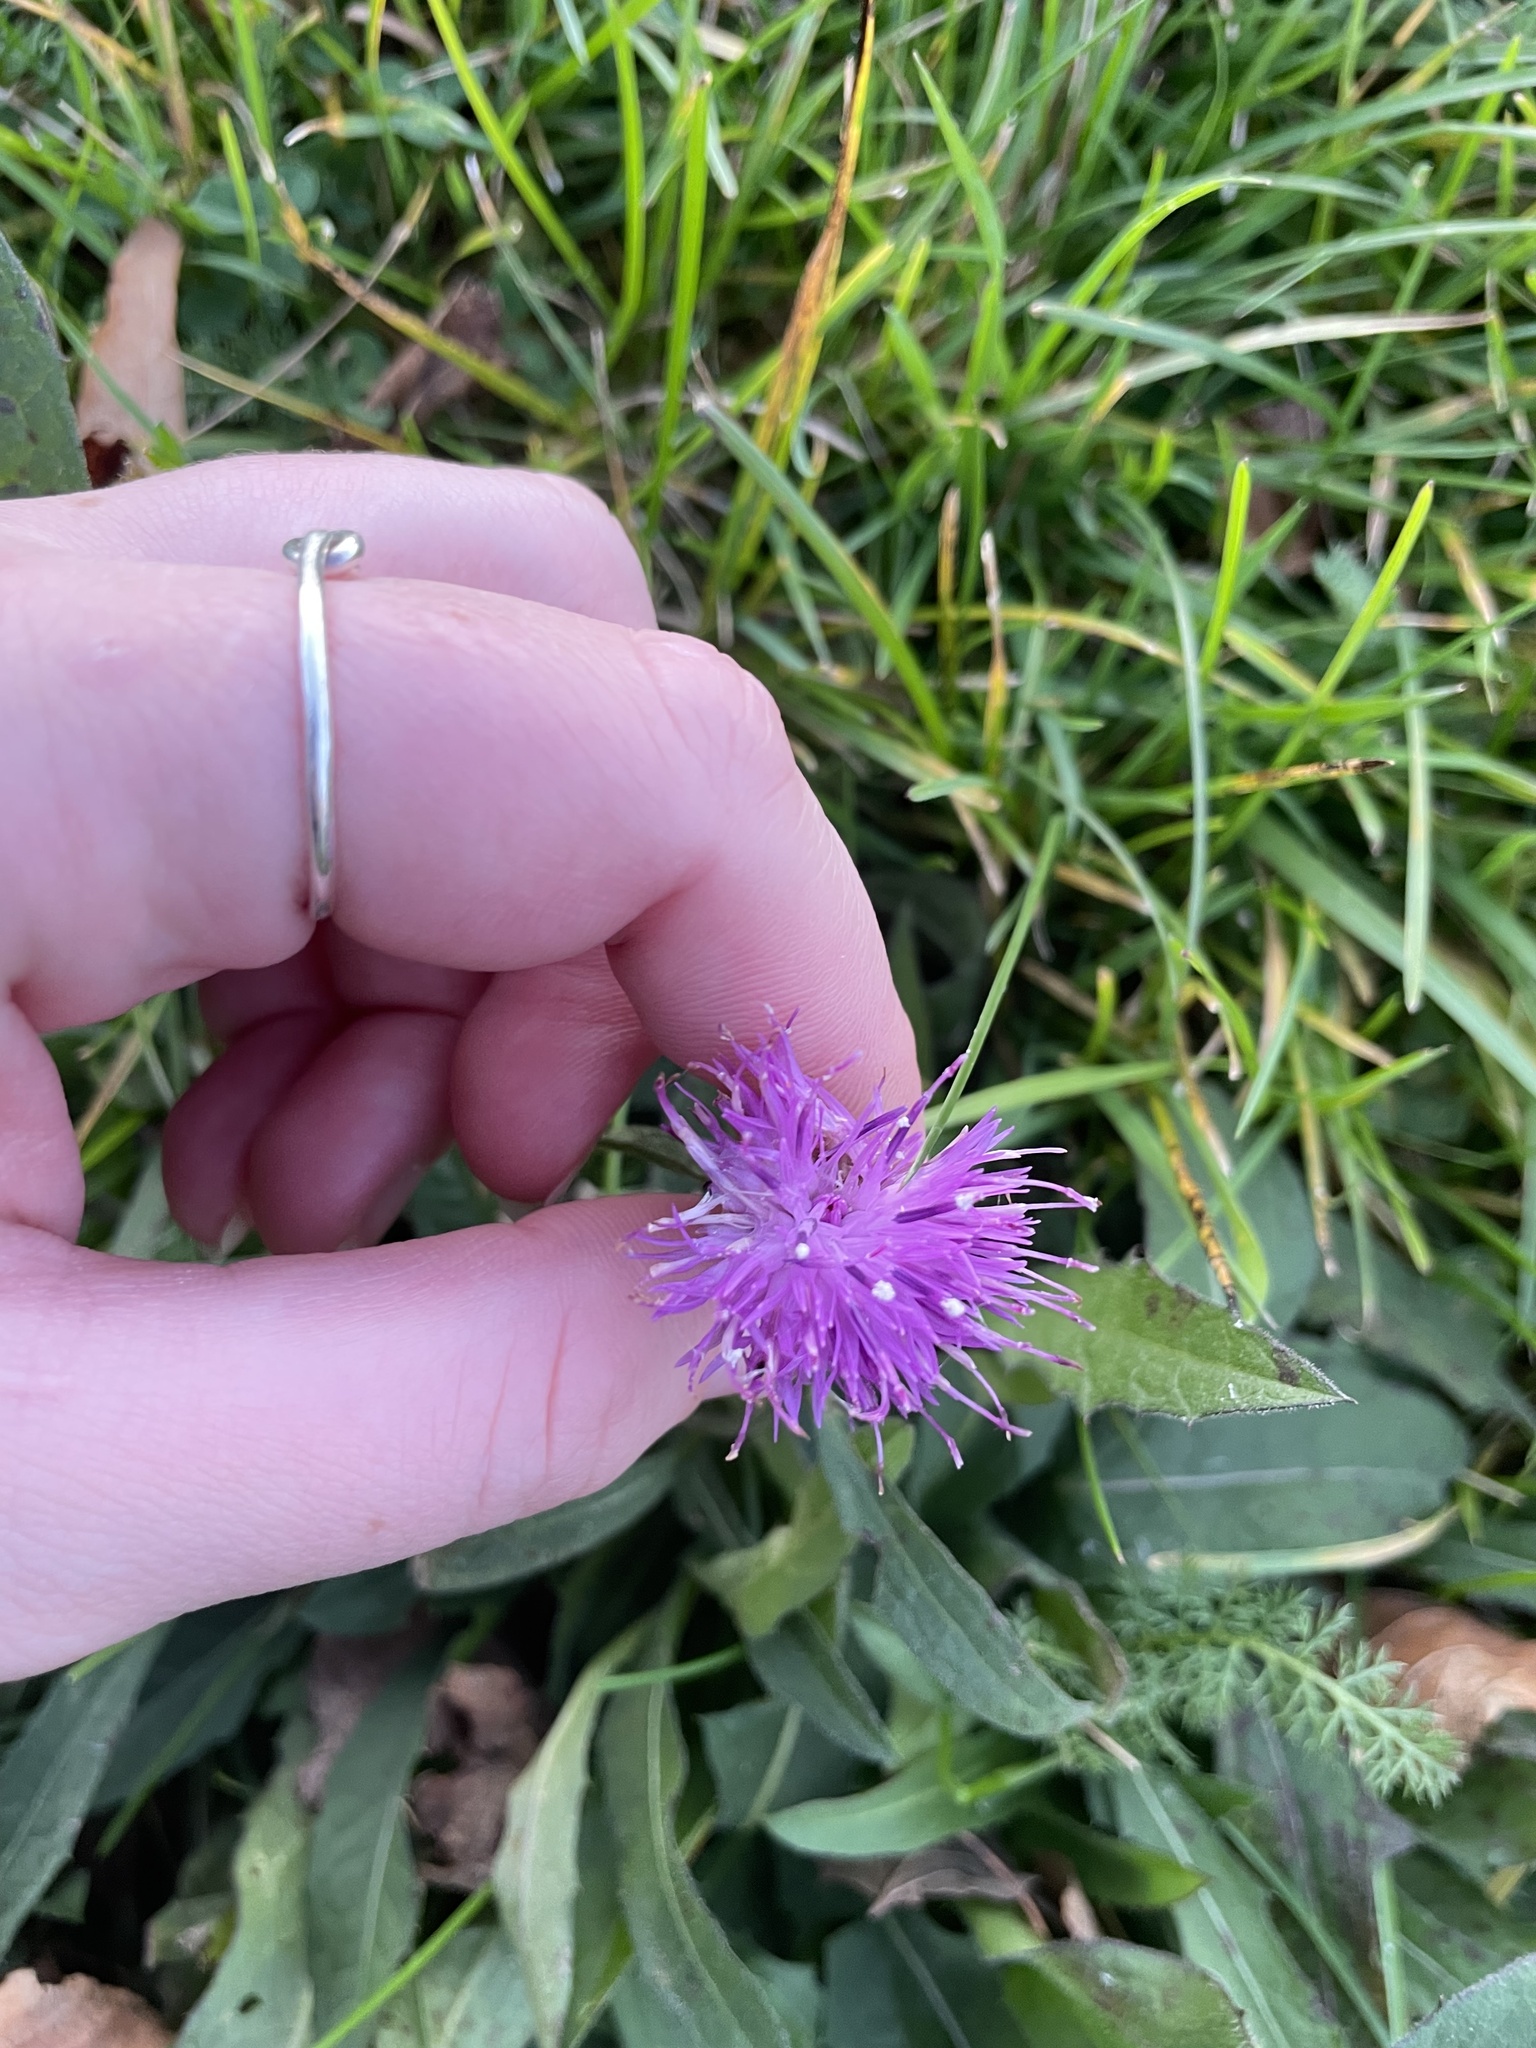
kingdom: Plantae
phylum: Tracheophyta
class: Magnoliopsida
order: Asterales
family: Asteraceae
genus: Centaurea
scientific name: Centaurea nigra
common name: Lesser knapweed
